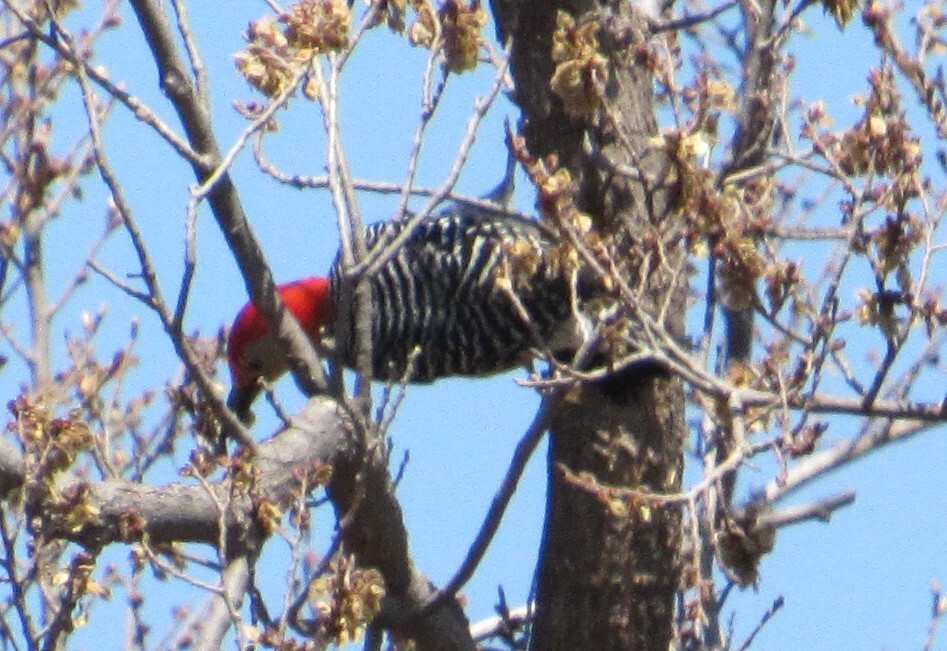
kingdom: Animalia
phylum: Chordata
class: Aves
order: Piciformes
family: Picidae
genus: Melanerpes
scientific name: Melanerpes carolinus
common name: Red-bellied woodpecker
